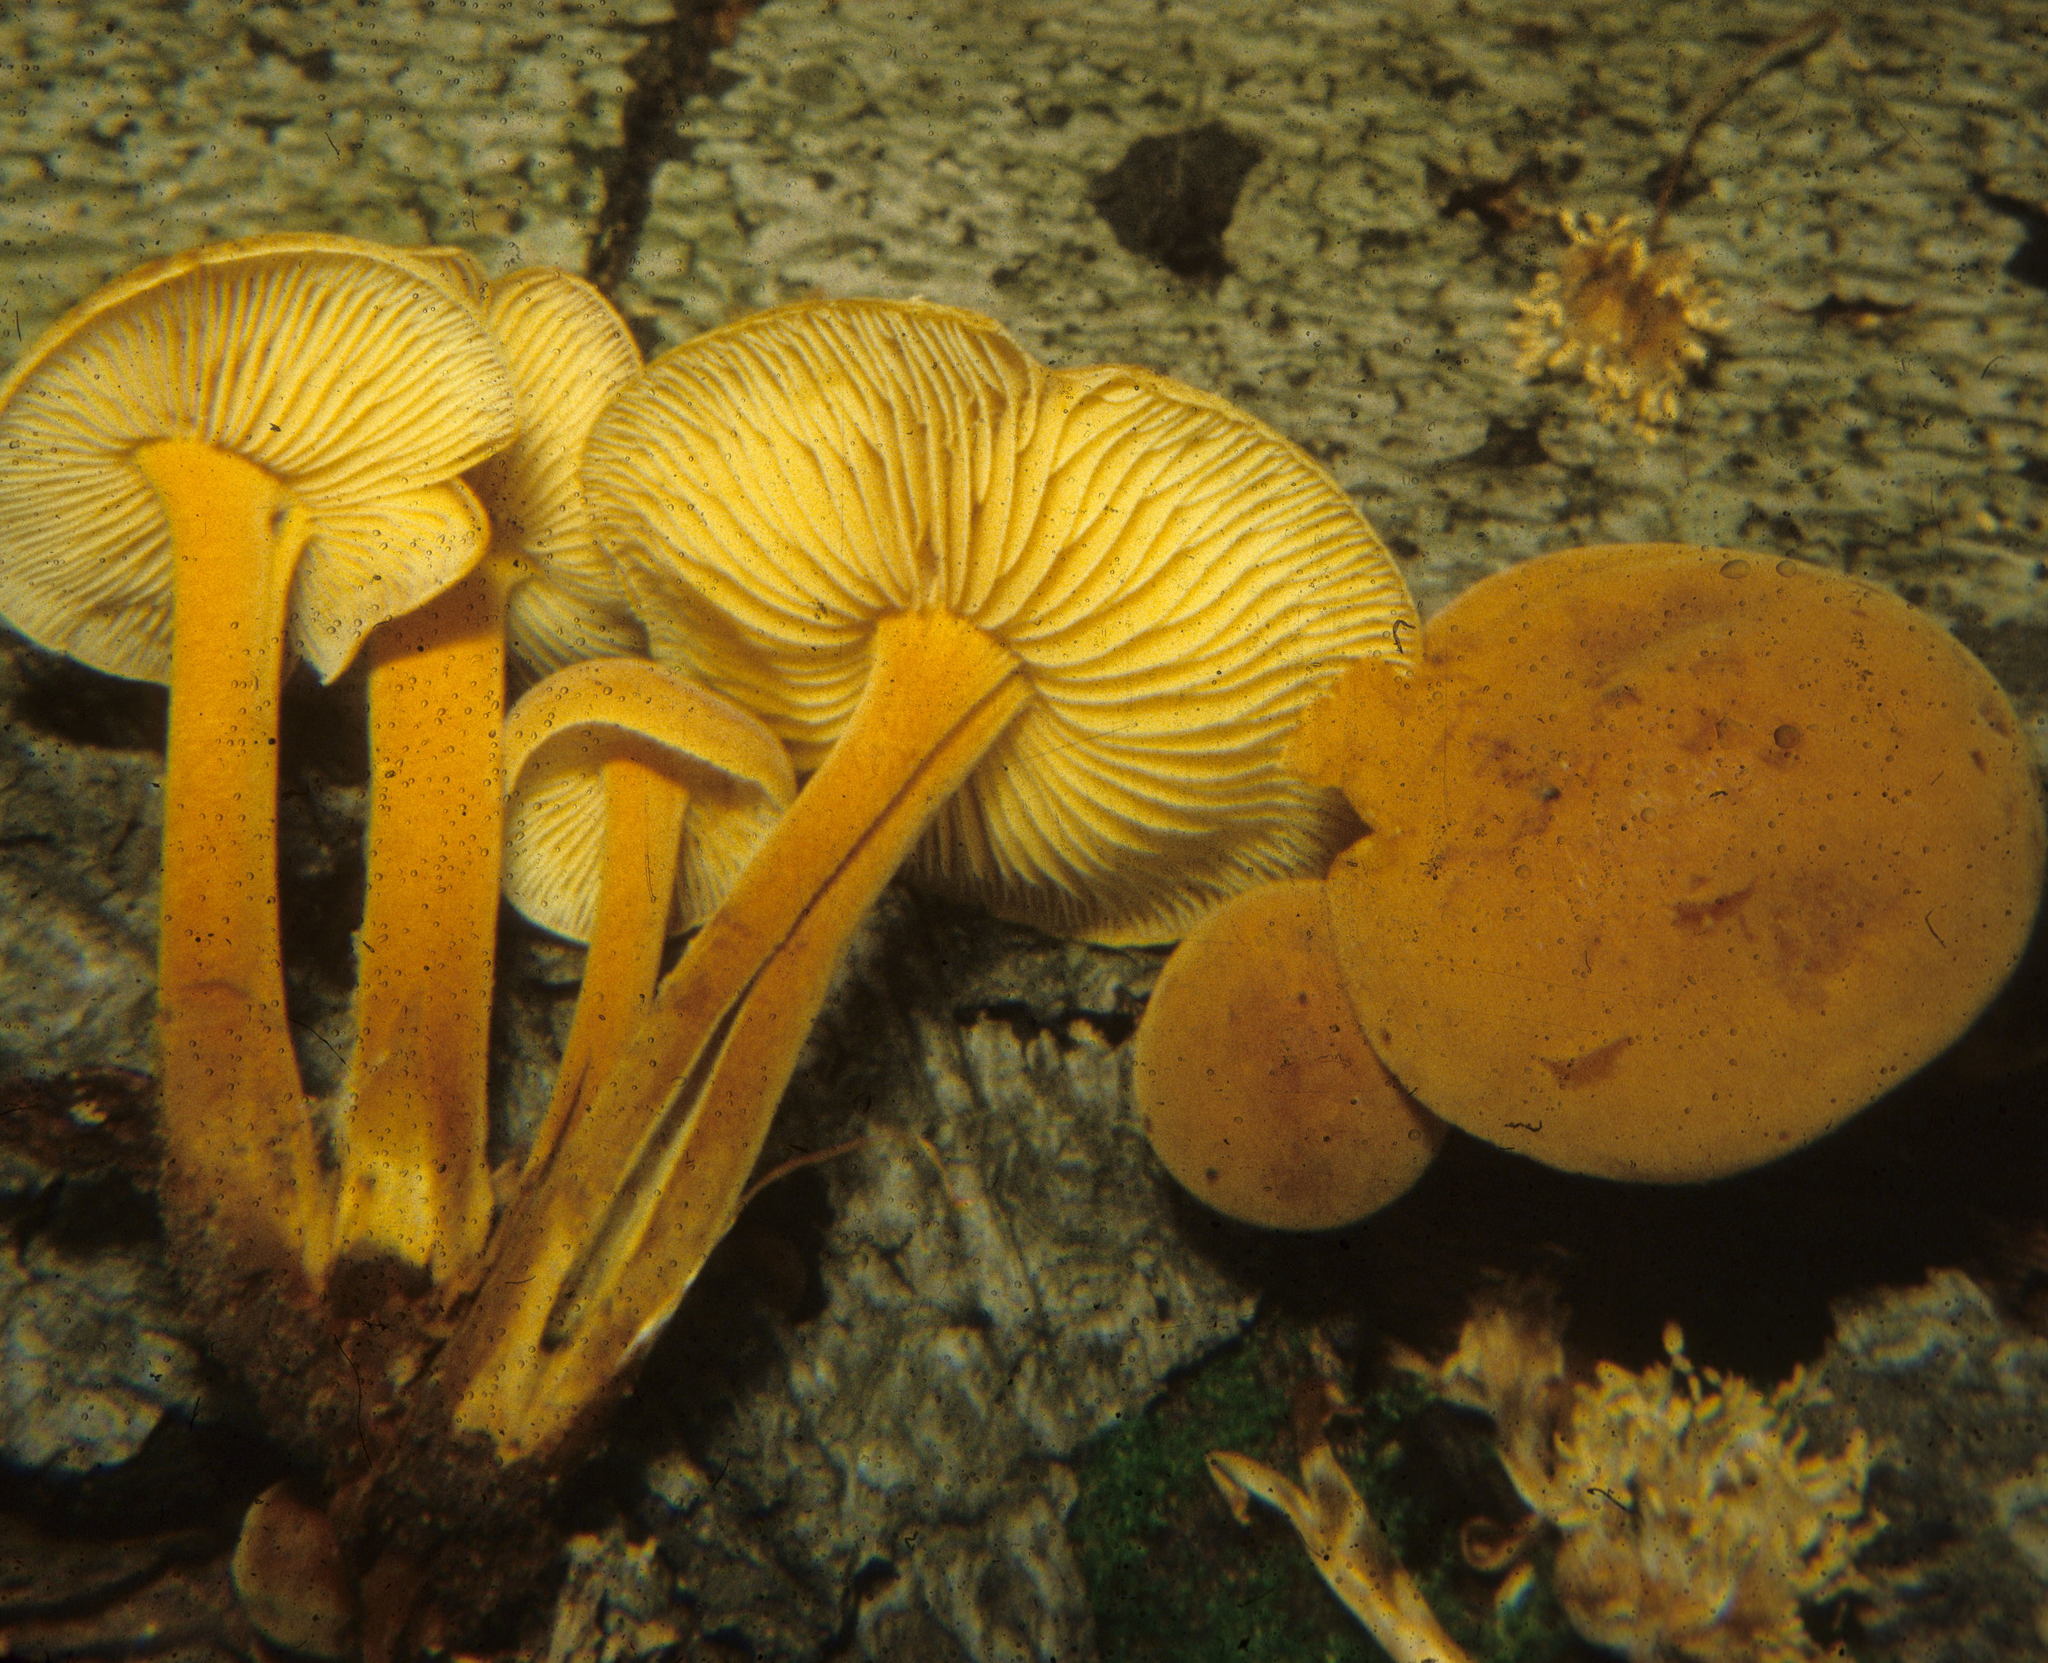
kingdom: Fungi
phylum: Basidiomycota
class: Agaricomycetes
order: Agaricales
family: Mycenaceae
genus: Xeromphalina
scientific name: Xeromphalina tenuipes
